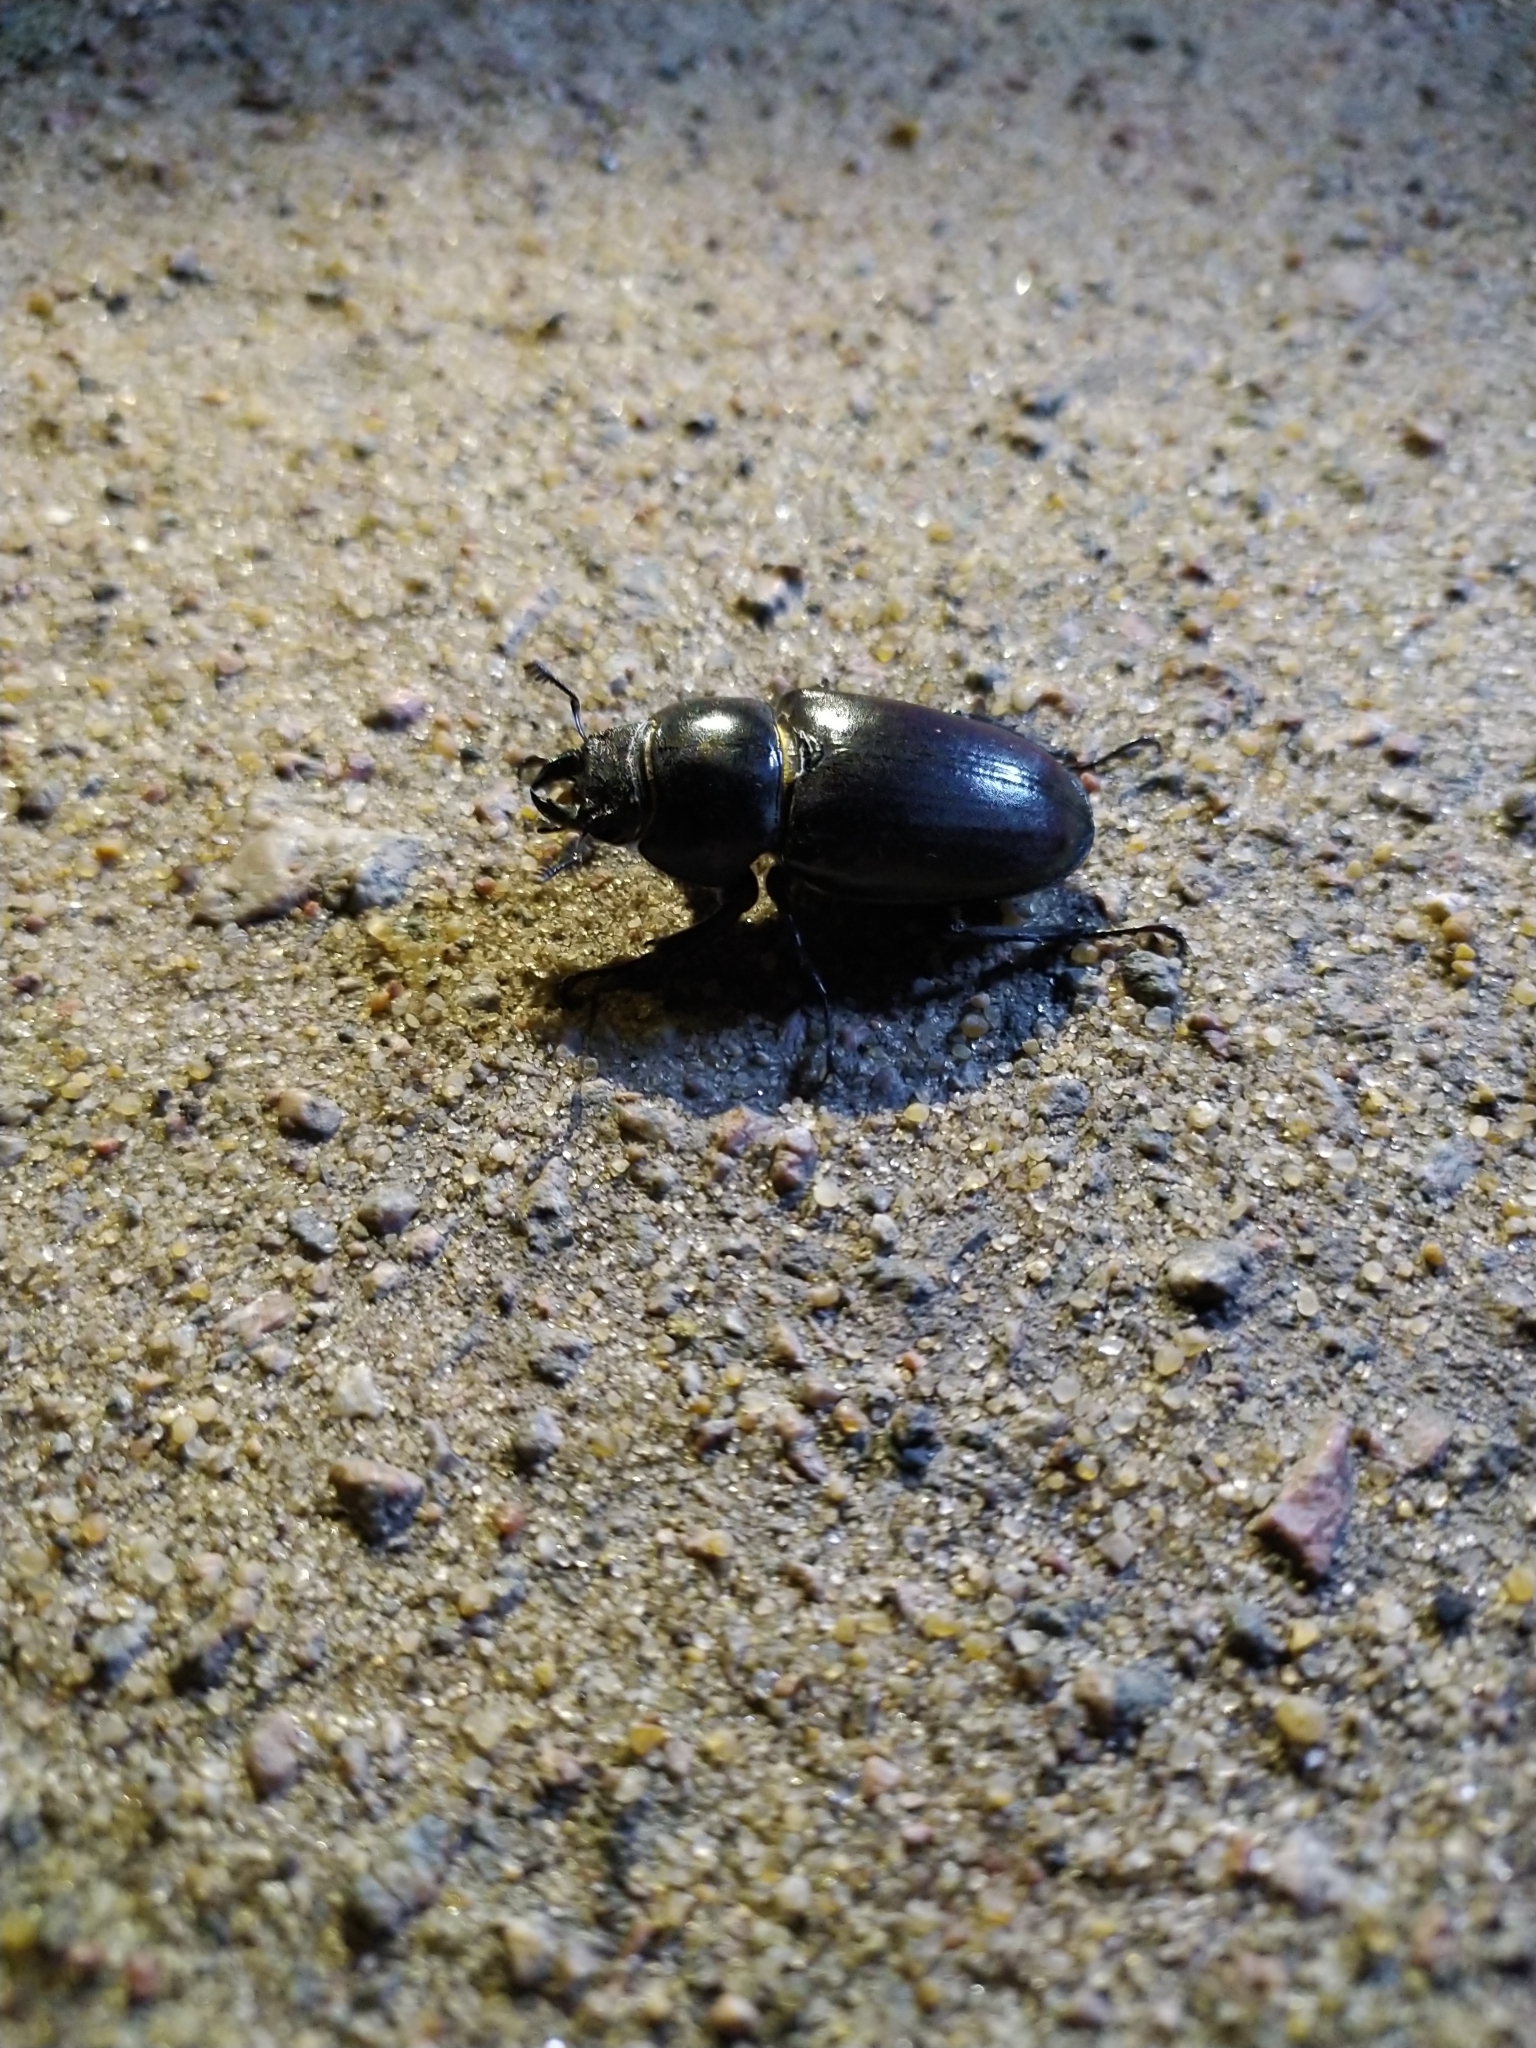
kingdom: Animalia
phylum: Arthropoda
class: Insecta
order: Coleoptera
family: Lucanidae
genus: Lucanus
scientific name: Lucanus cervus
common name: Stag beetle
